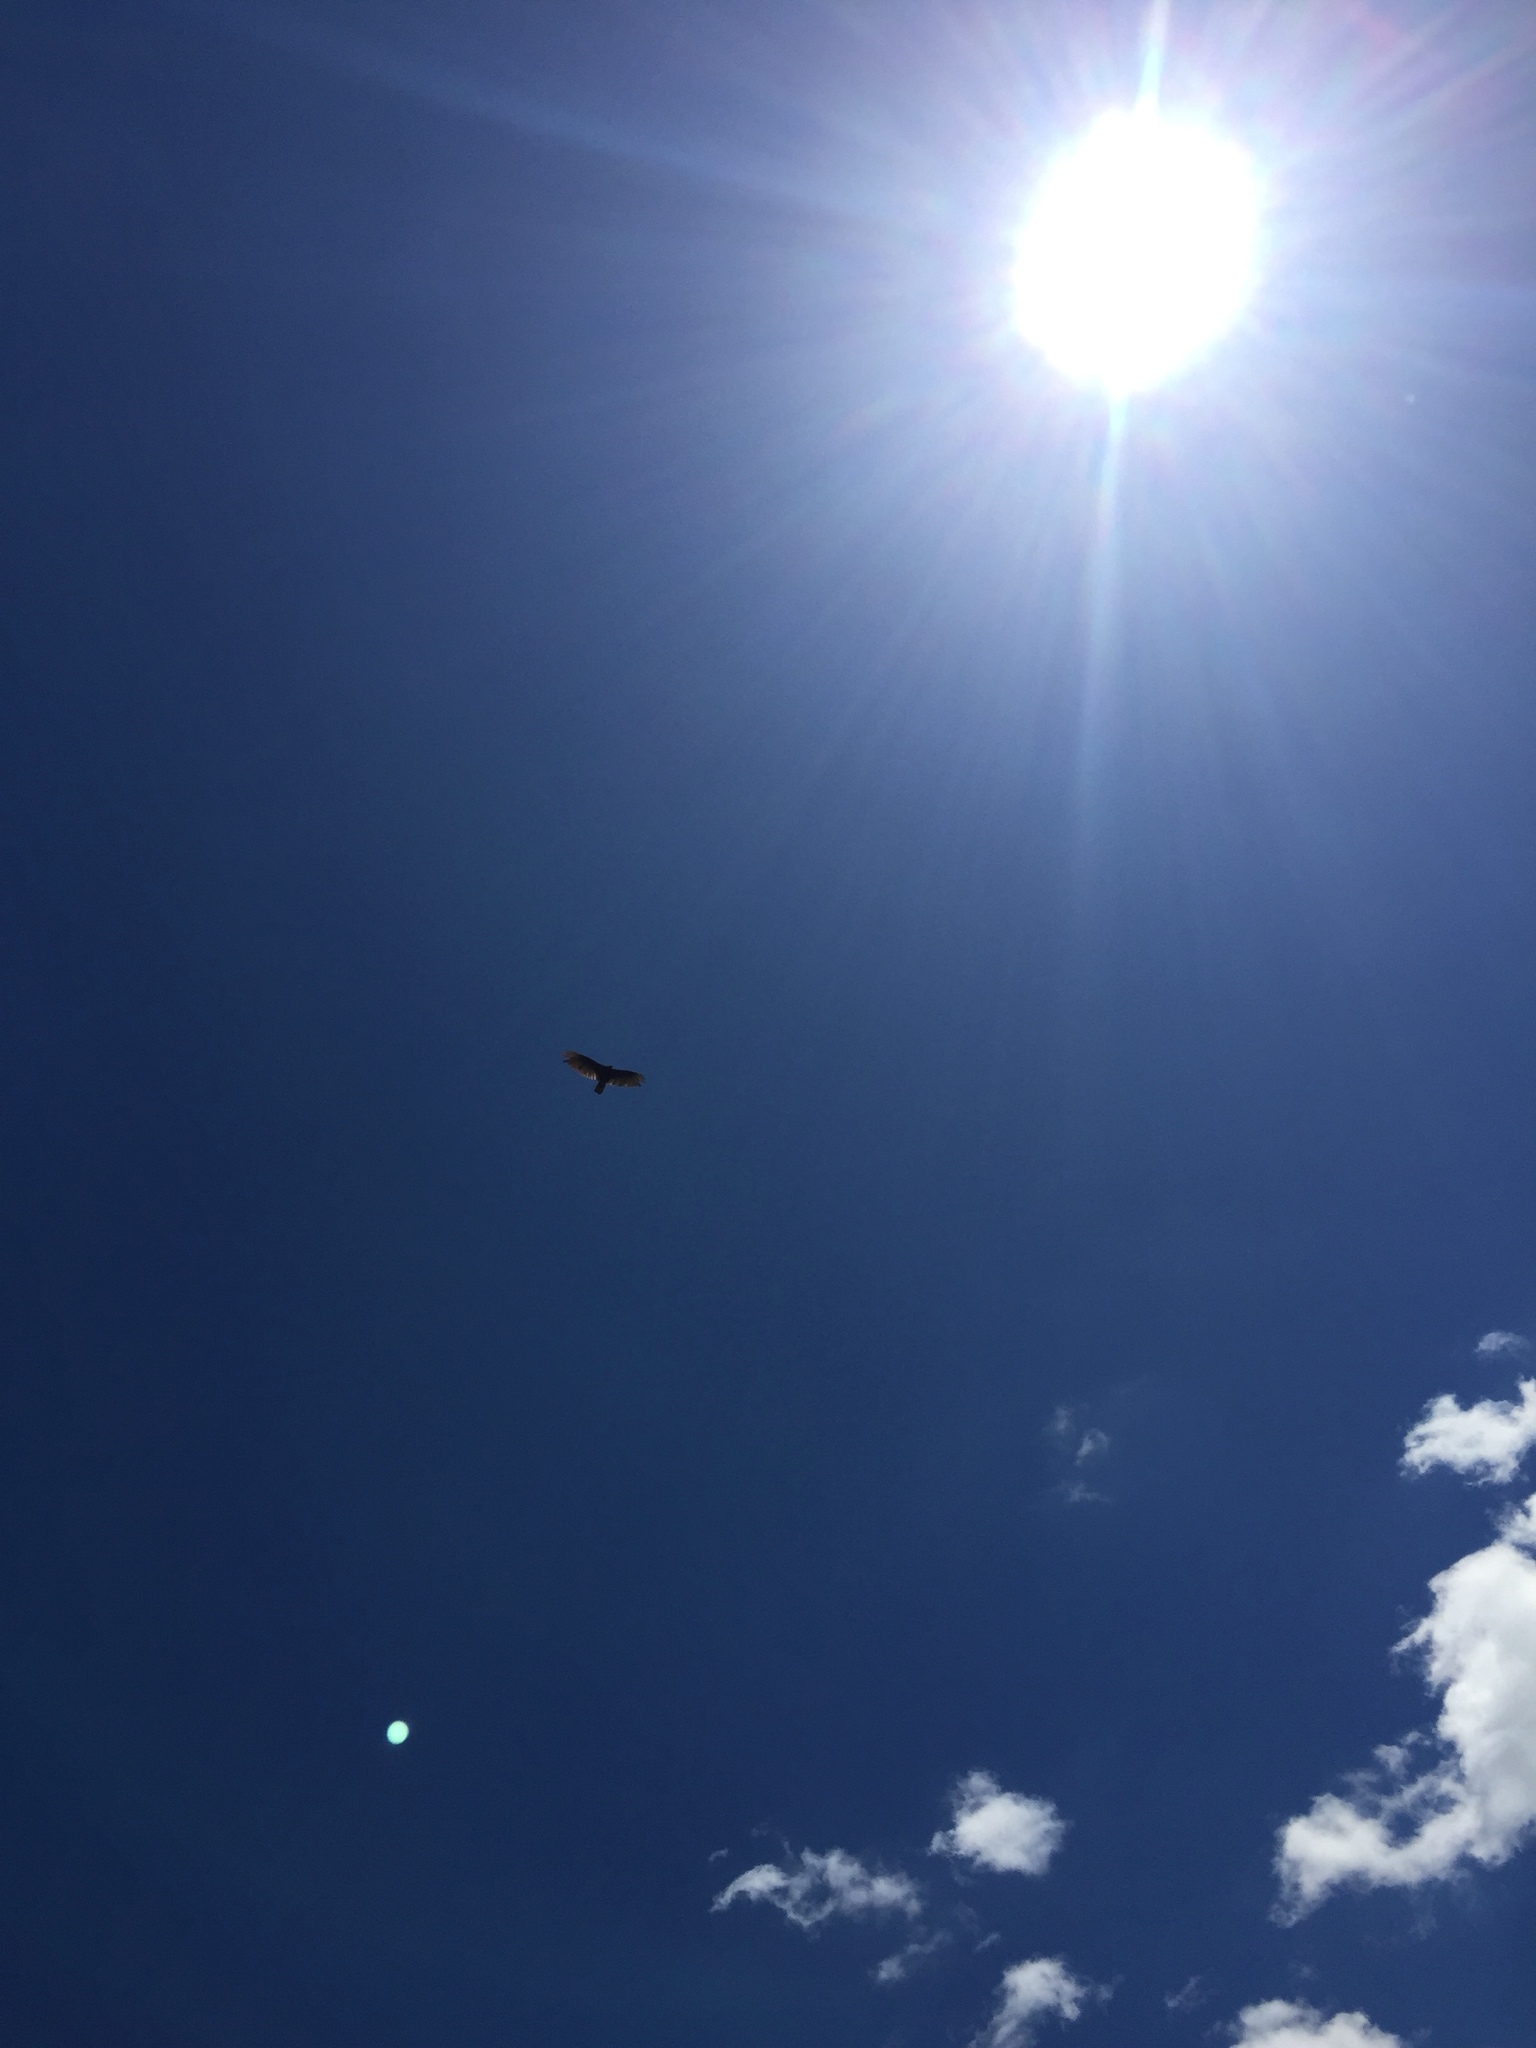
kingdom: Animalia
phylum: Chordata
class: Aves
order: Accipitriformes
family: Cathartidae
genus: Cathartes
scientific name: Cathartes aura
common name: Turkey vulture
